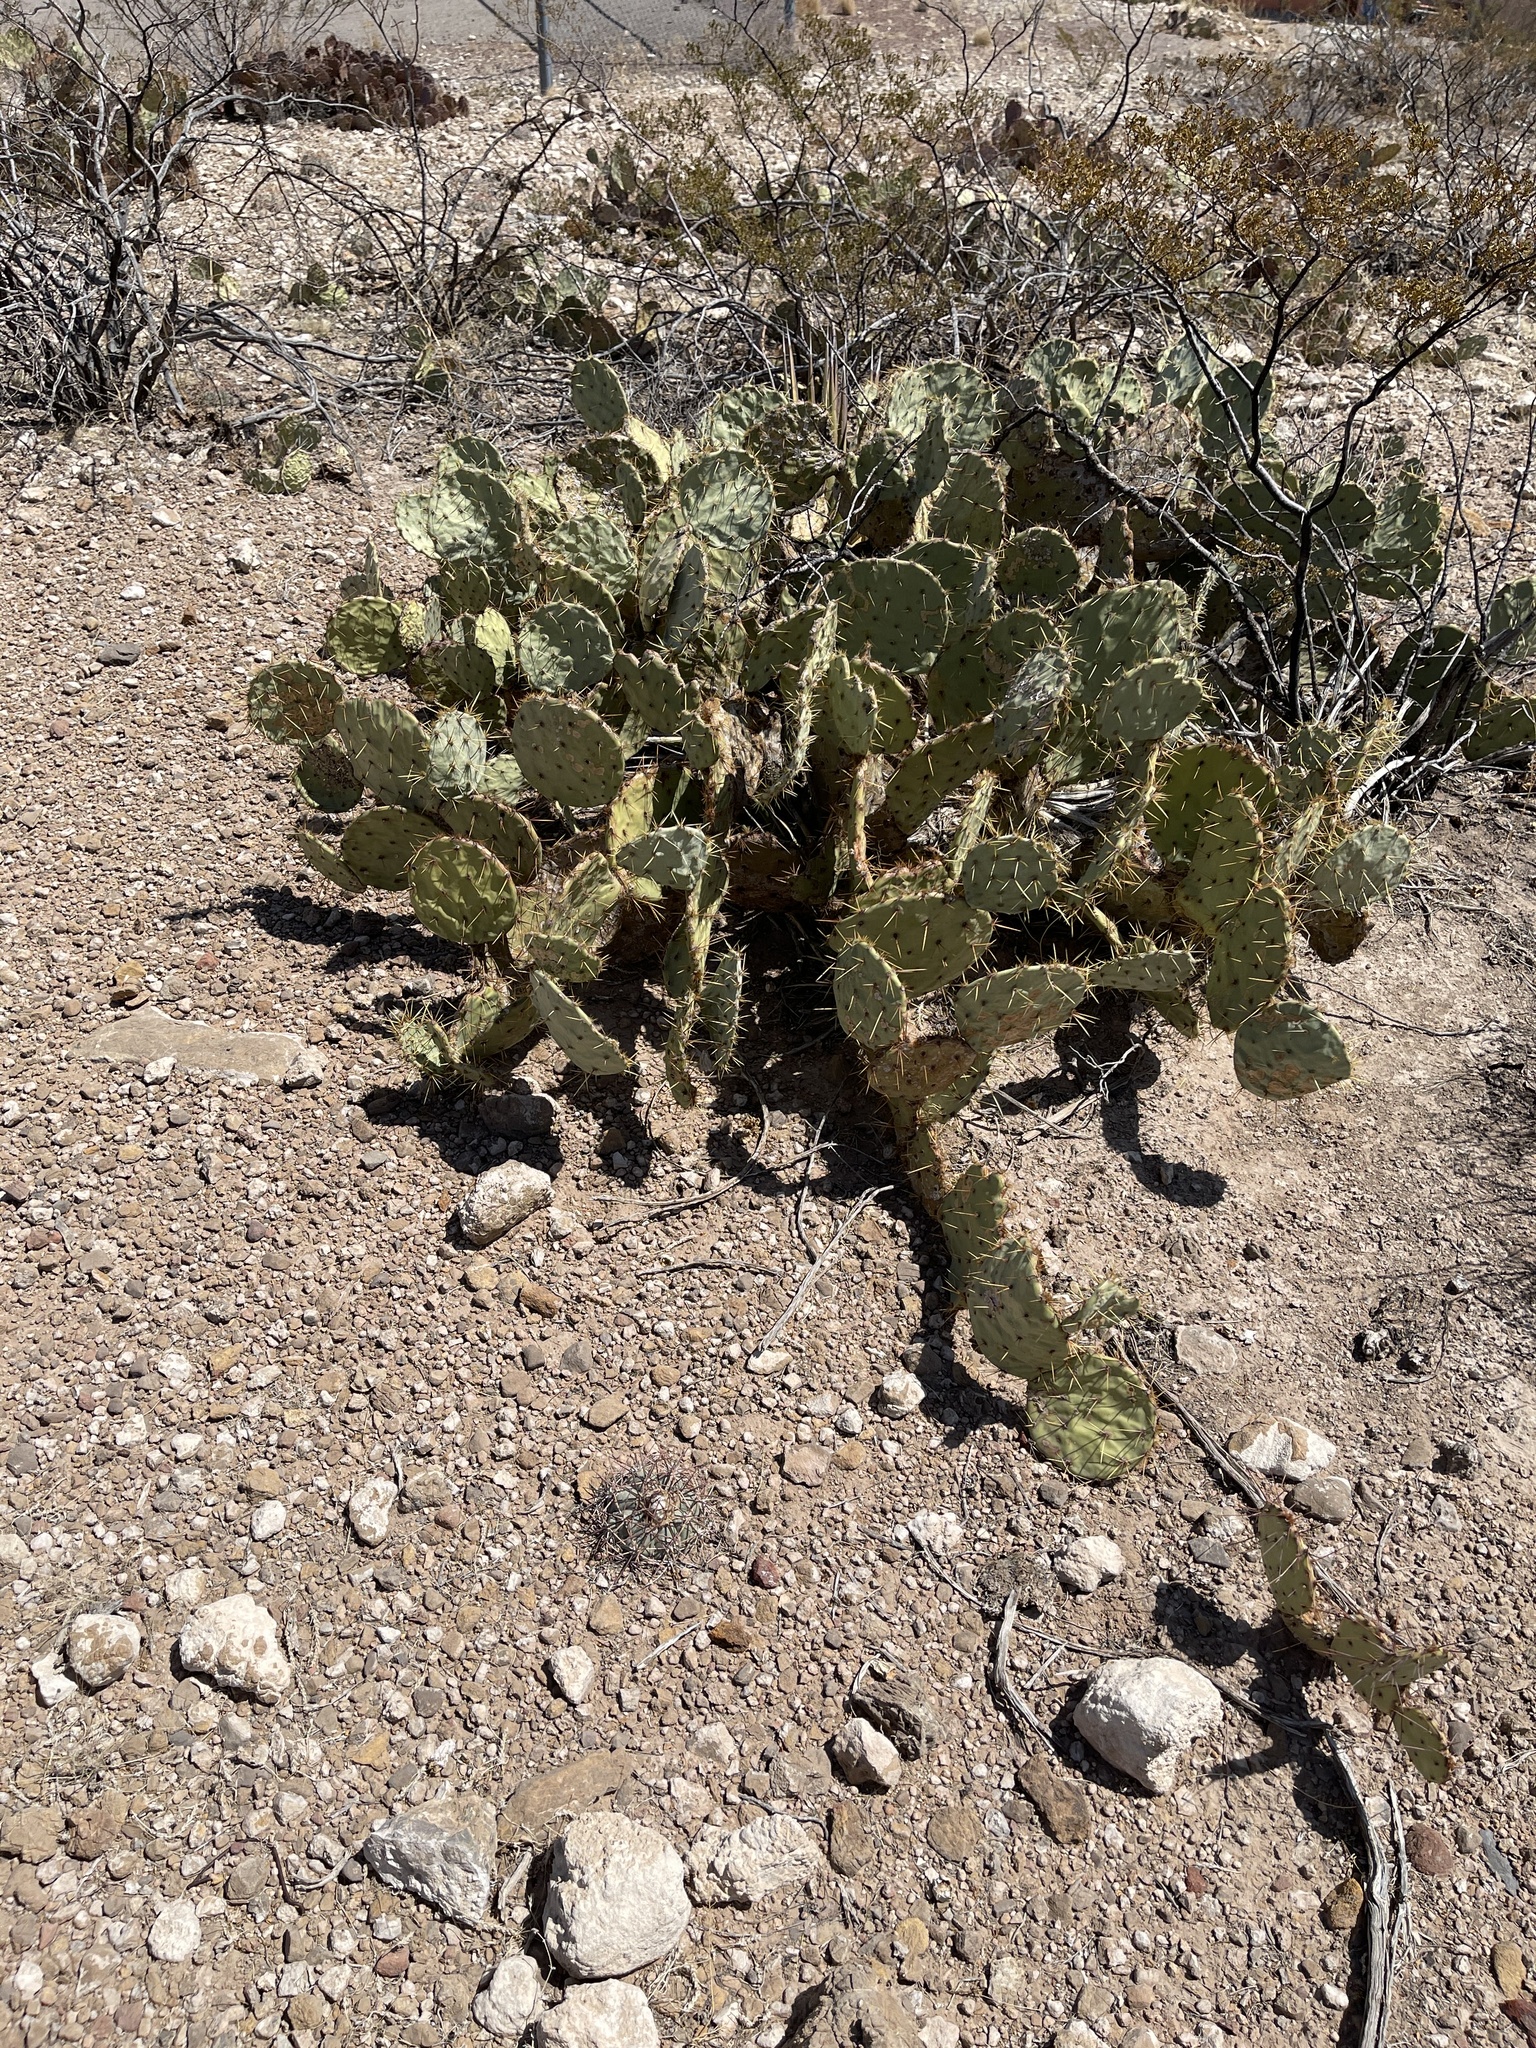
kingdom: Plantae
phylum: Tracheophyta
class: Magnoliopsida
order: Caryophyllales
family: Cactaceae
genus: Opuntia
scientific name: Opuntia engelmannii
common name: Cactus-apple
